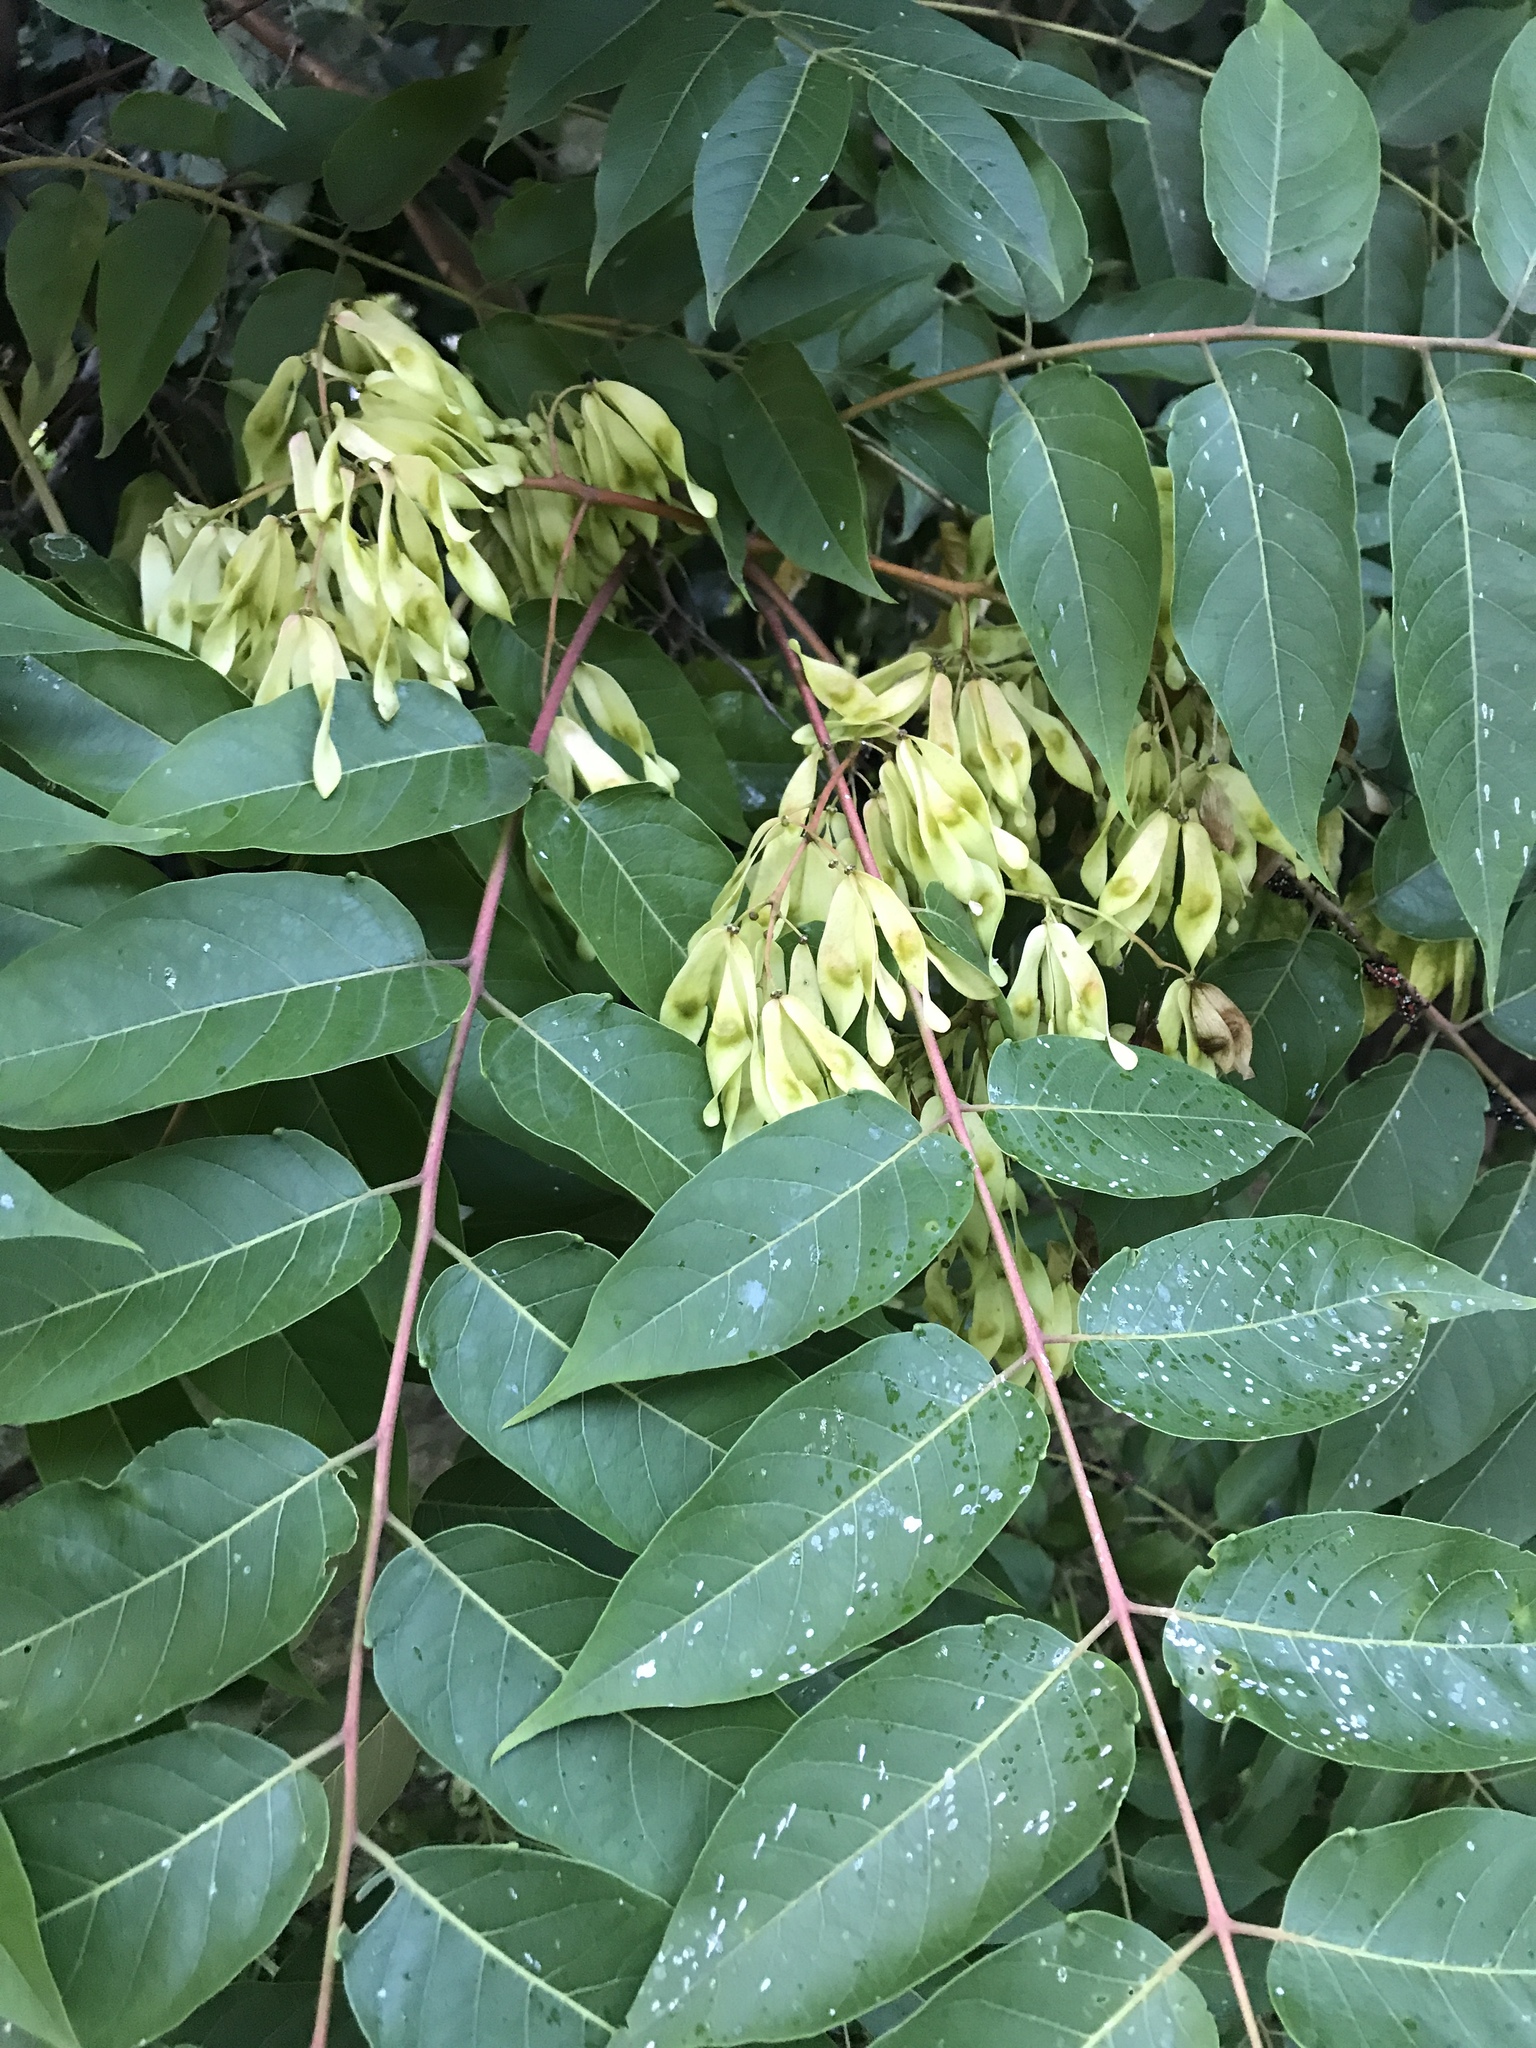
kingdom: Plantae
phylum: Tracheophyta
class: Magnoliopsida
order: Sapindales
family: Simaroubaceae
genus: Ailanthus
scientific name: Ailanthus altissima
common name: Tree-of-heaven
